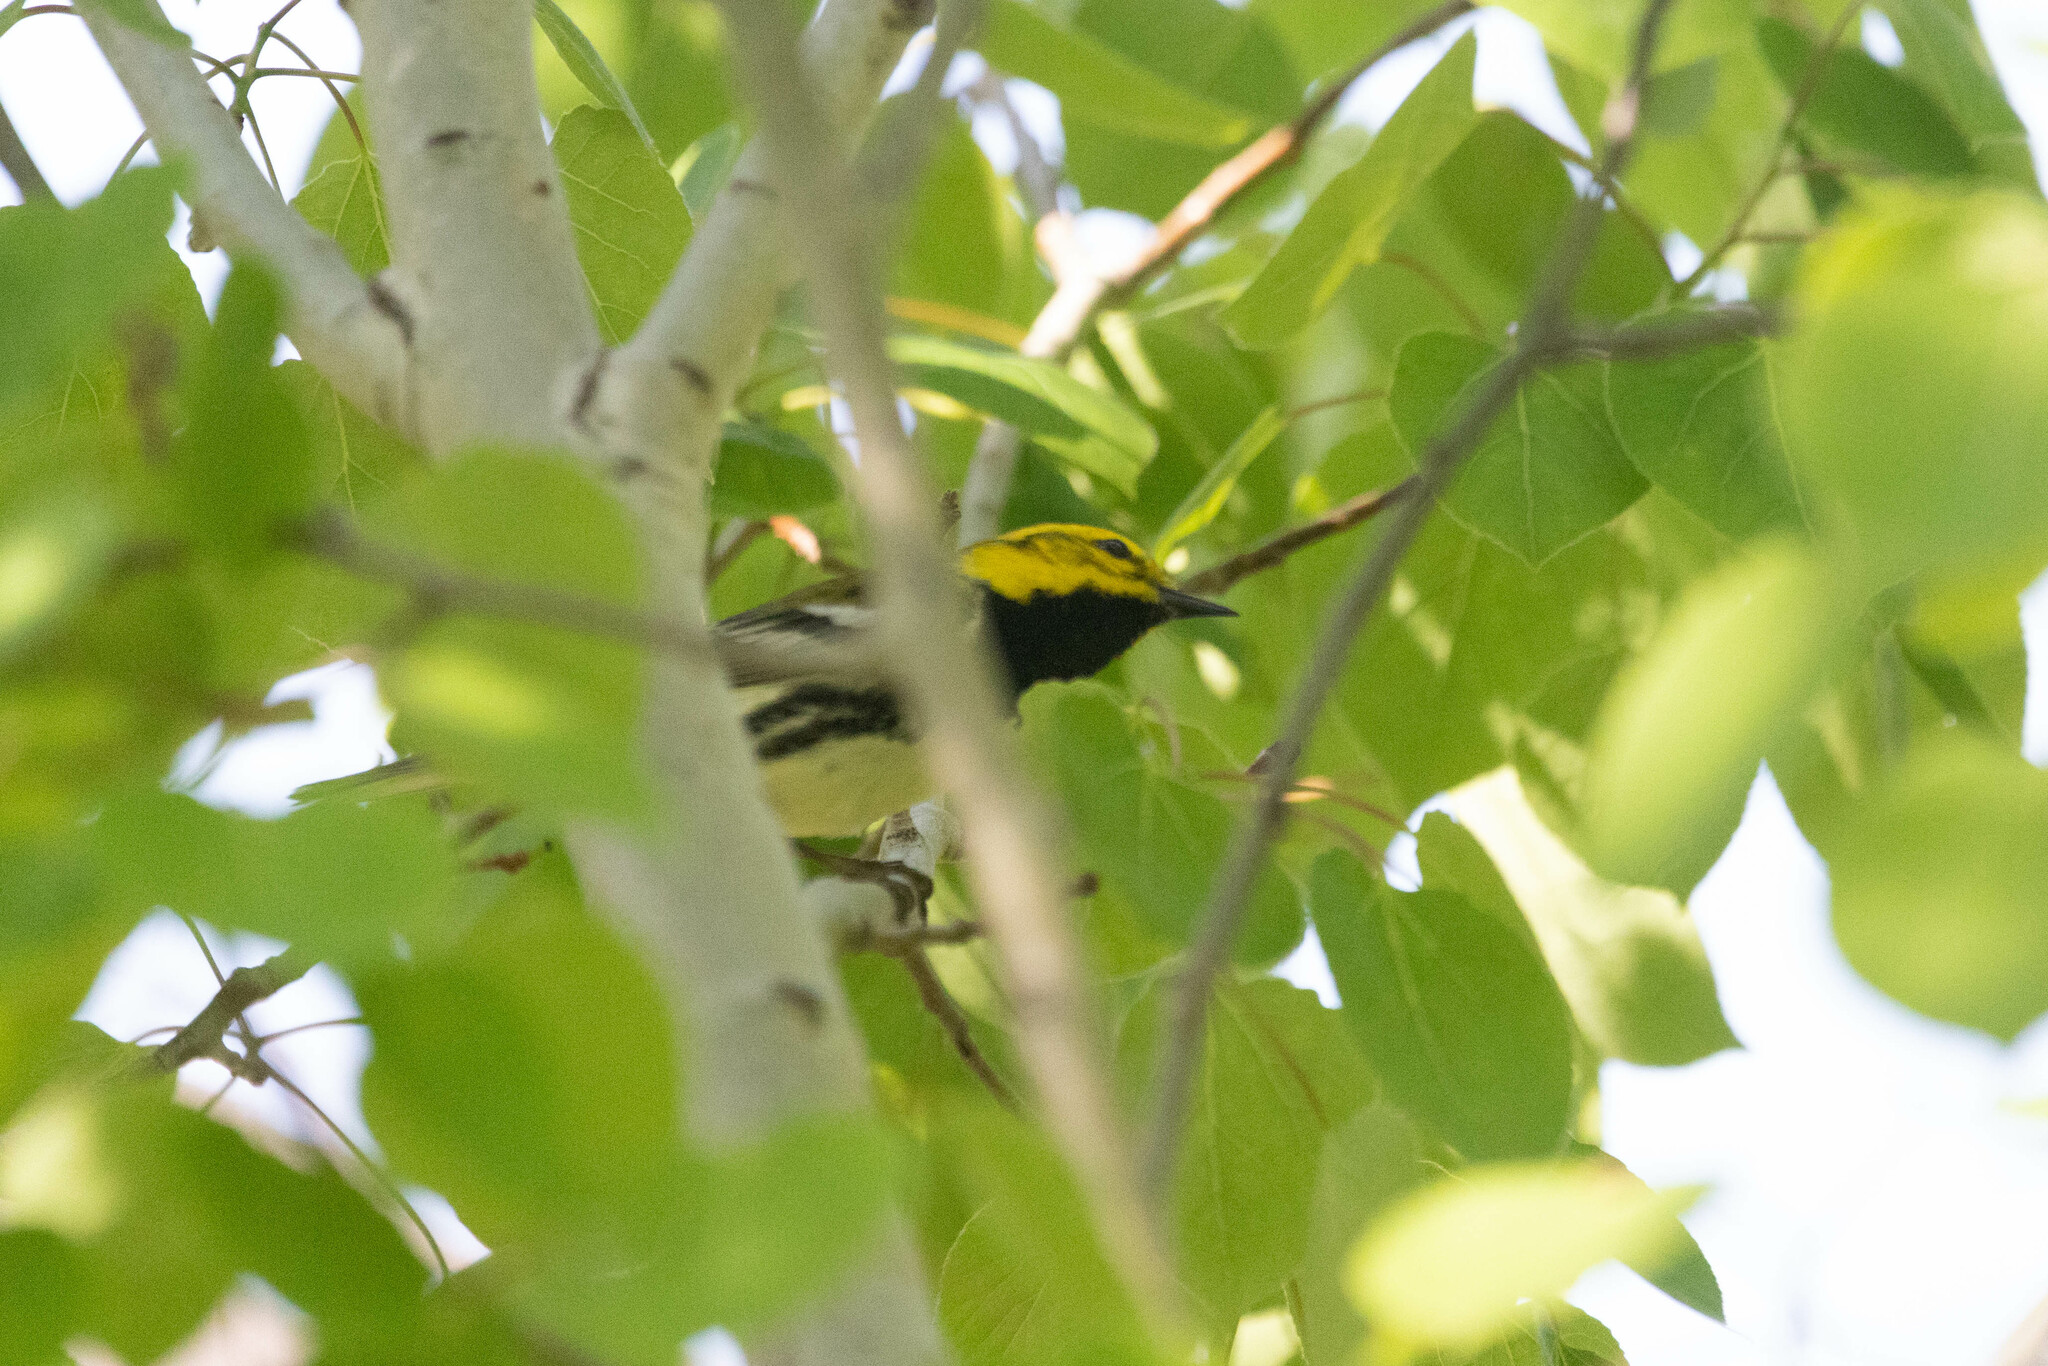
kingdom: Animalia
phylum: Chordata
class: Aves
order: Passeriformes
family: Parulidae
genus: Setophaga
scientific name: Setophaga virens
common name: Black-throated green warbler
